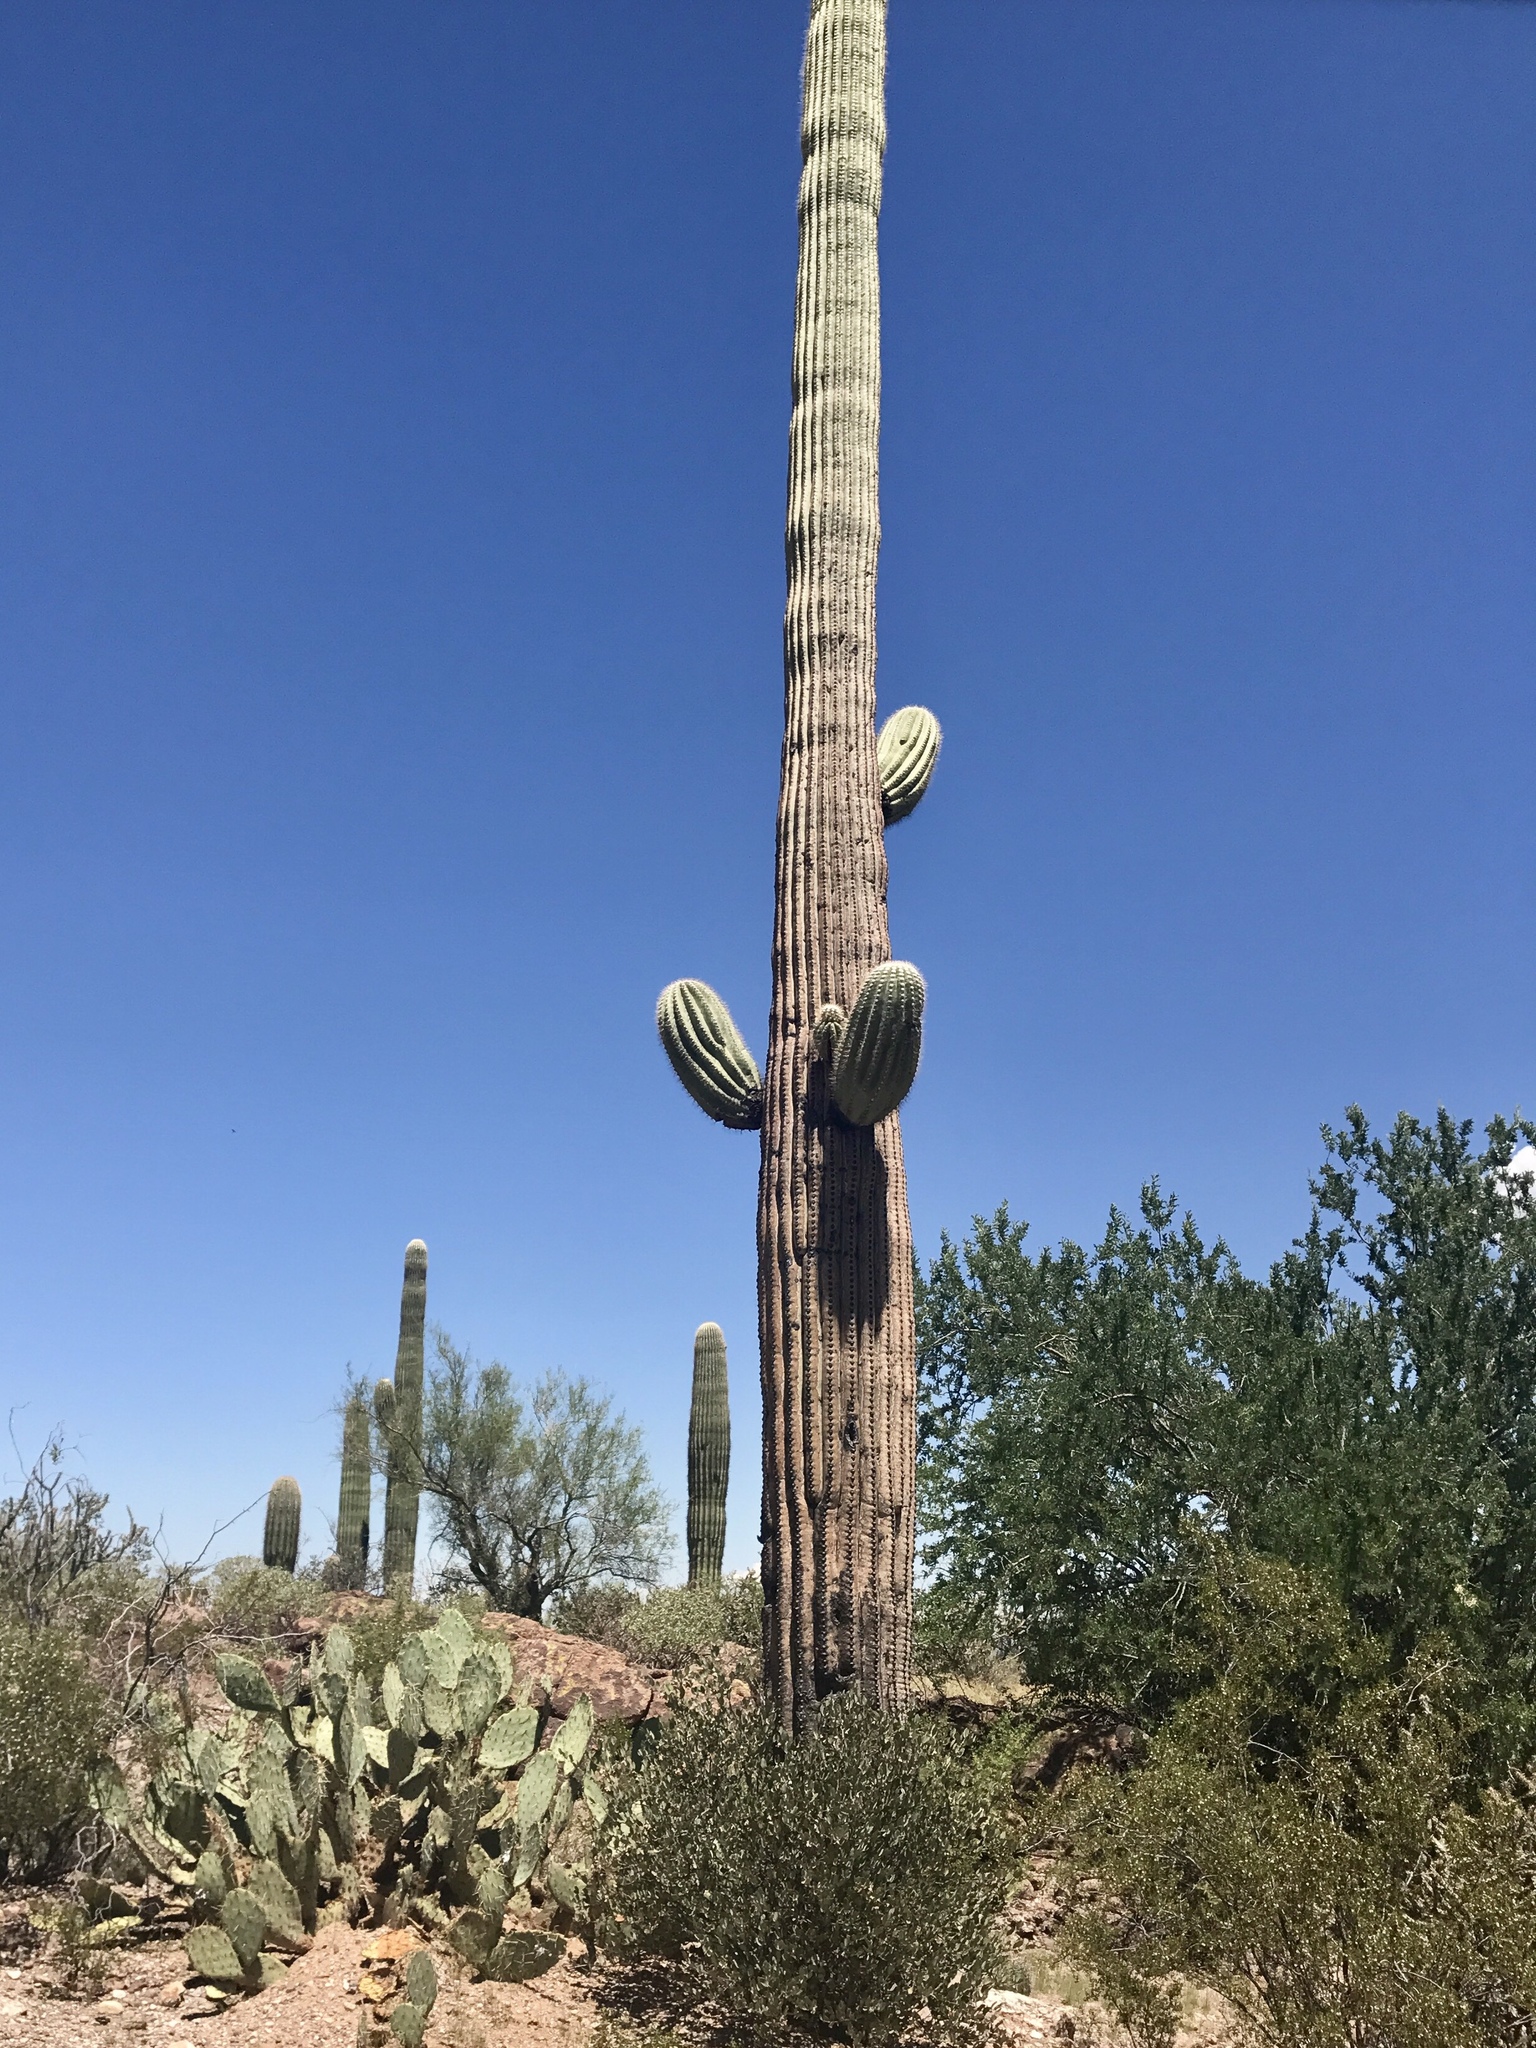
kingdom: Plantae
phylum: Tracheophyta
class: Magnoliopsida
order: Caryophyllales
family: Cactaceae
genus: Carnegiea
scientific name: Carnegiea gigantea
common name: Saguaro
